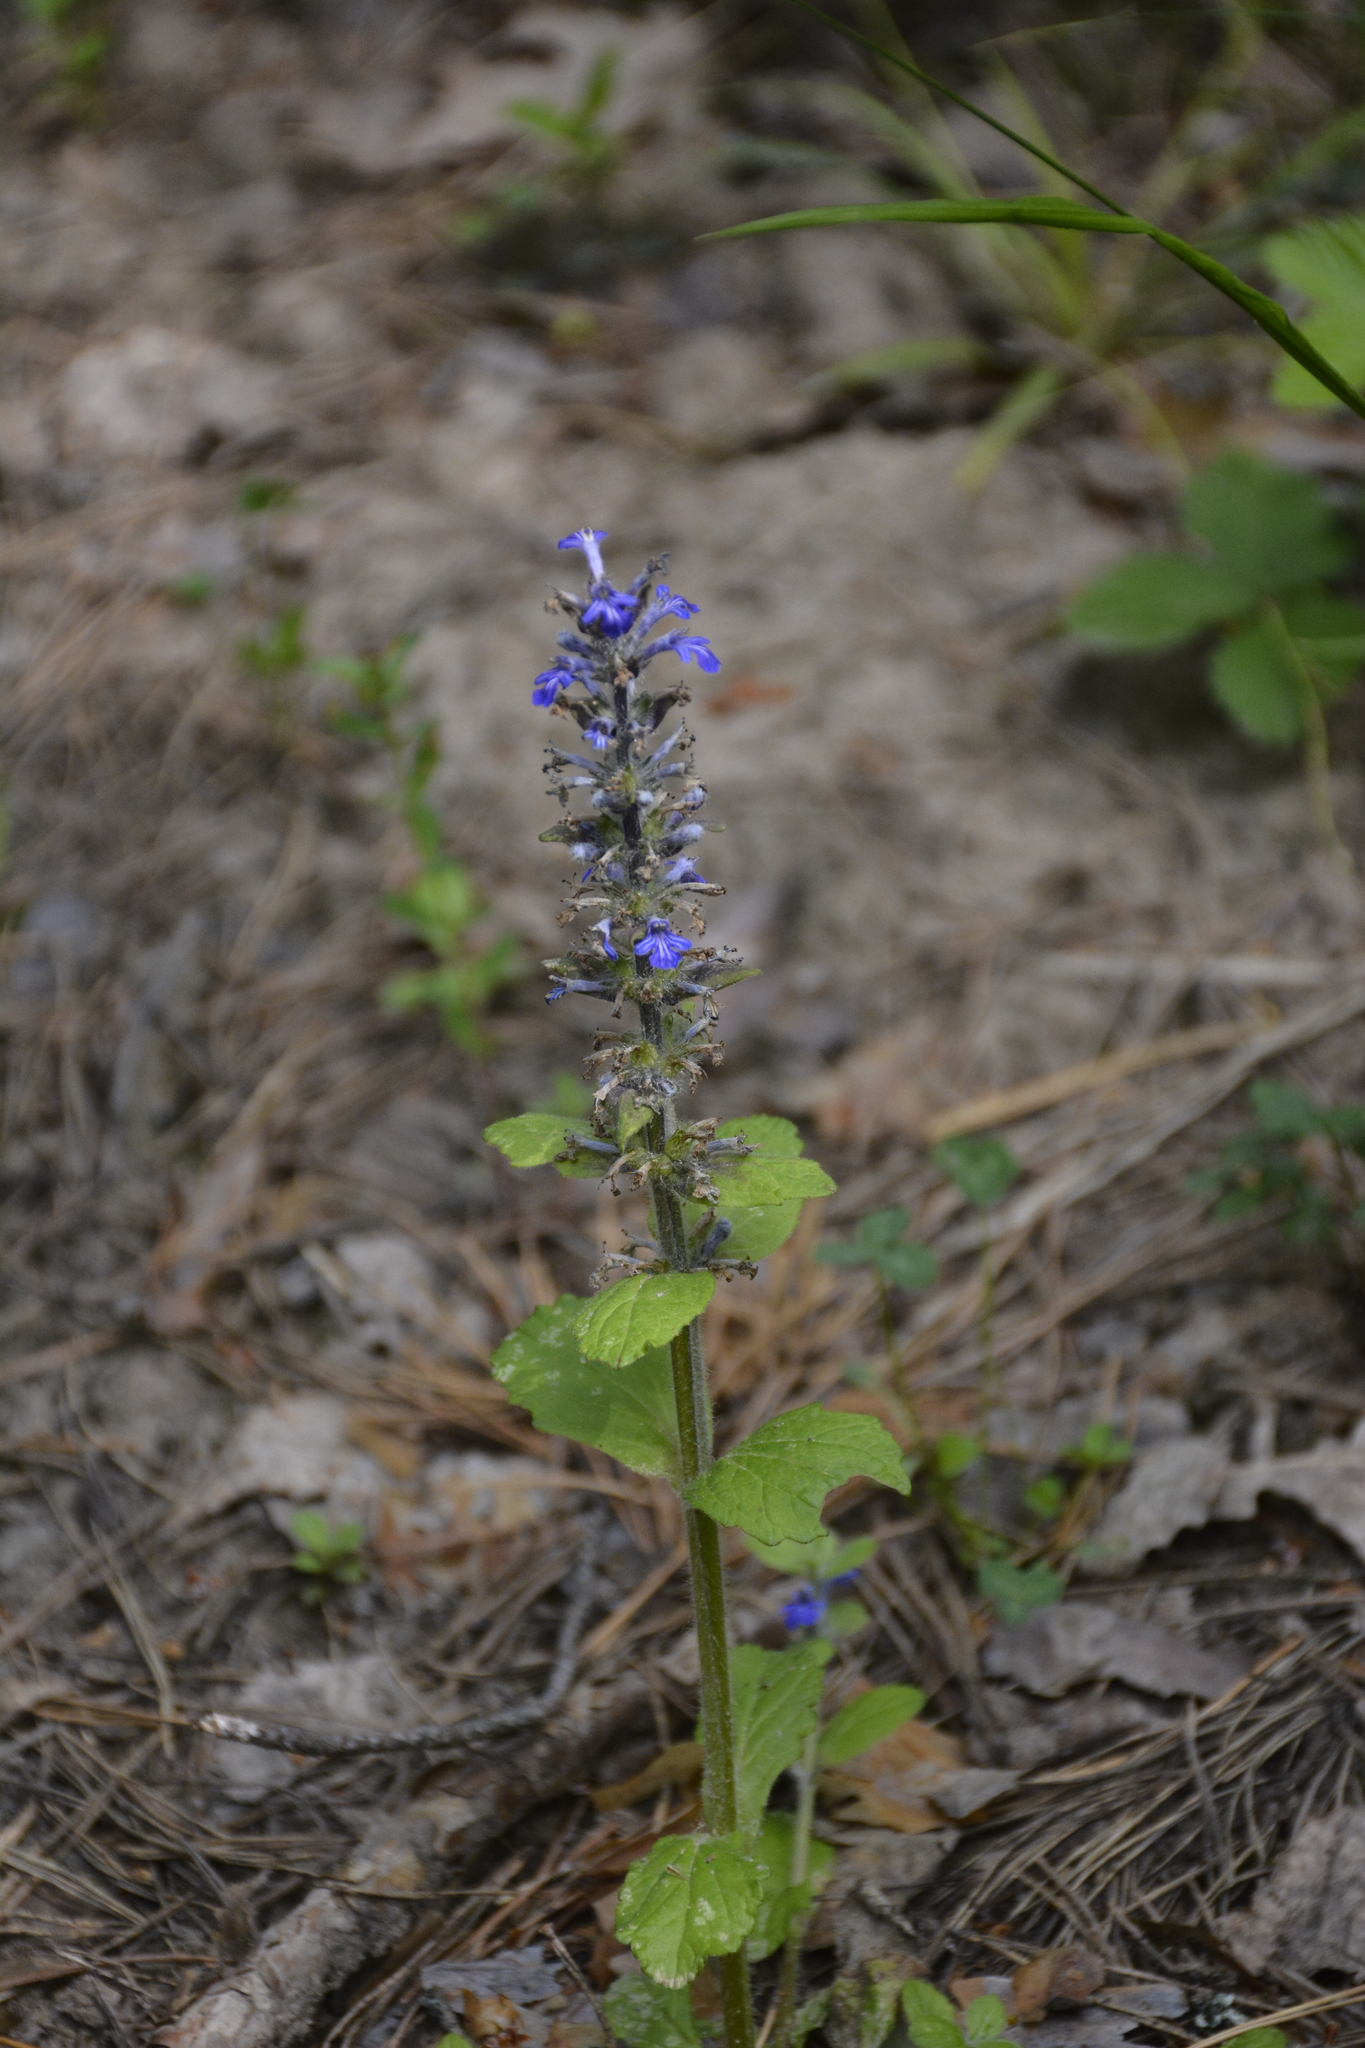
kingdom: Plantae
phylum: Tracheophyta
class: Magnoliopsida
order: Lamiales
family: Lamiaceae
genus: Ajuga
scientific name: Ajuga reptans
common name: Bugle
